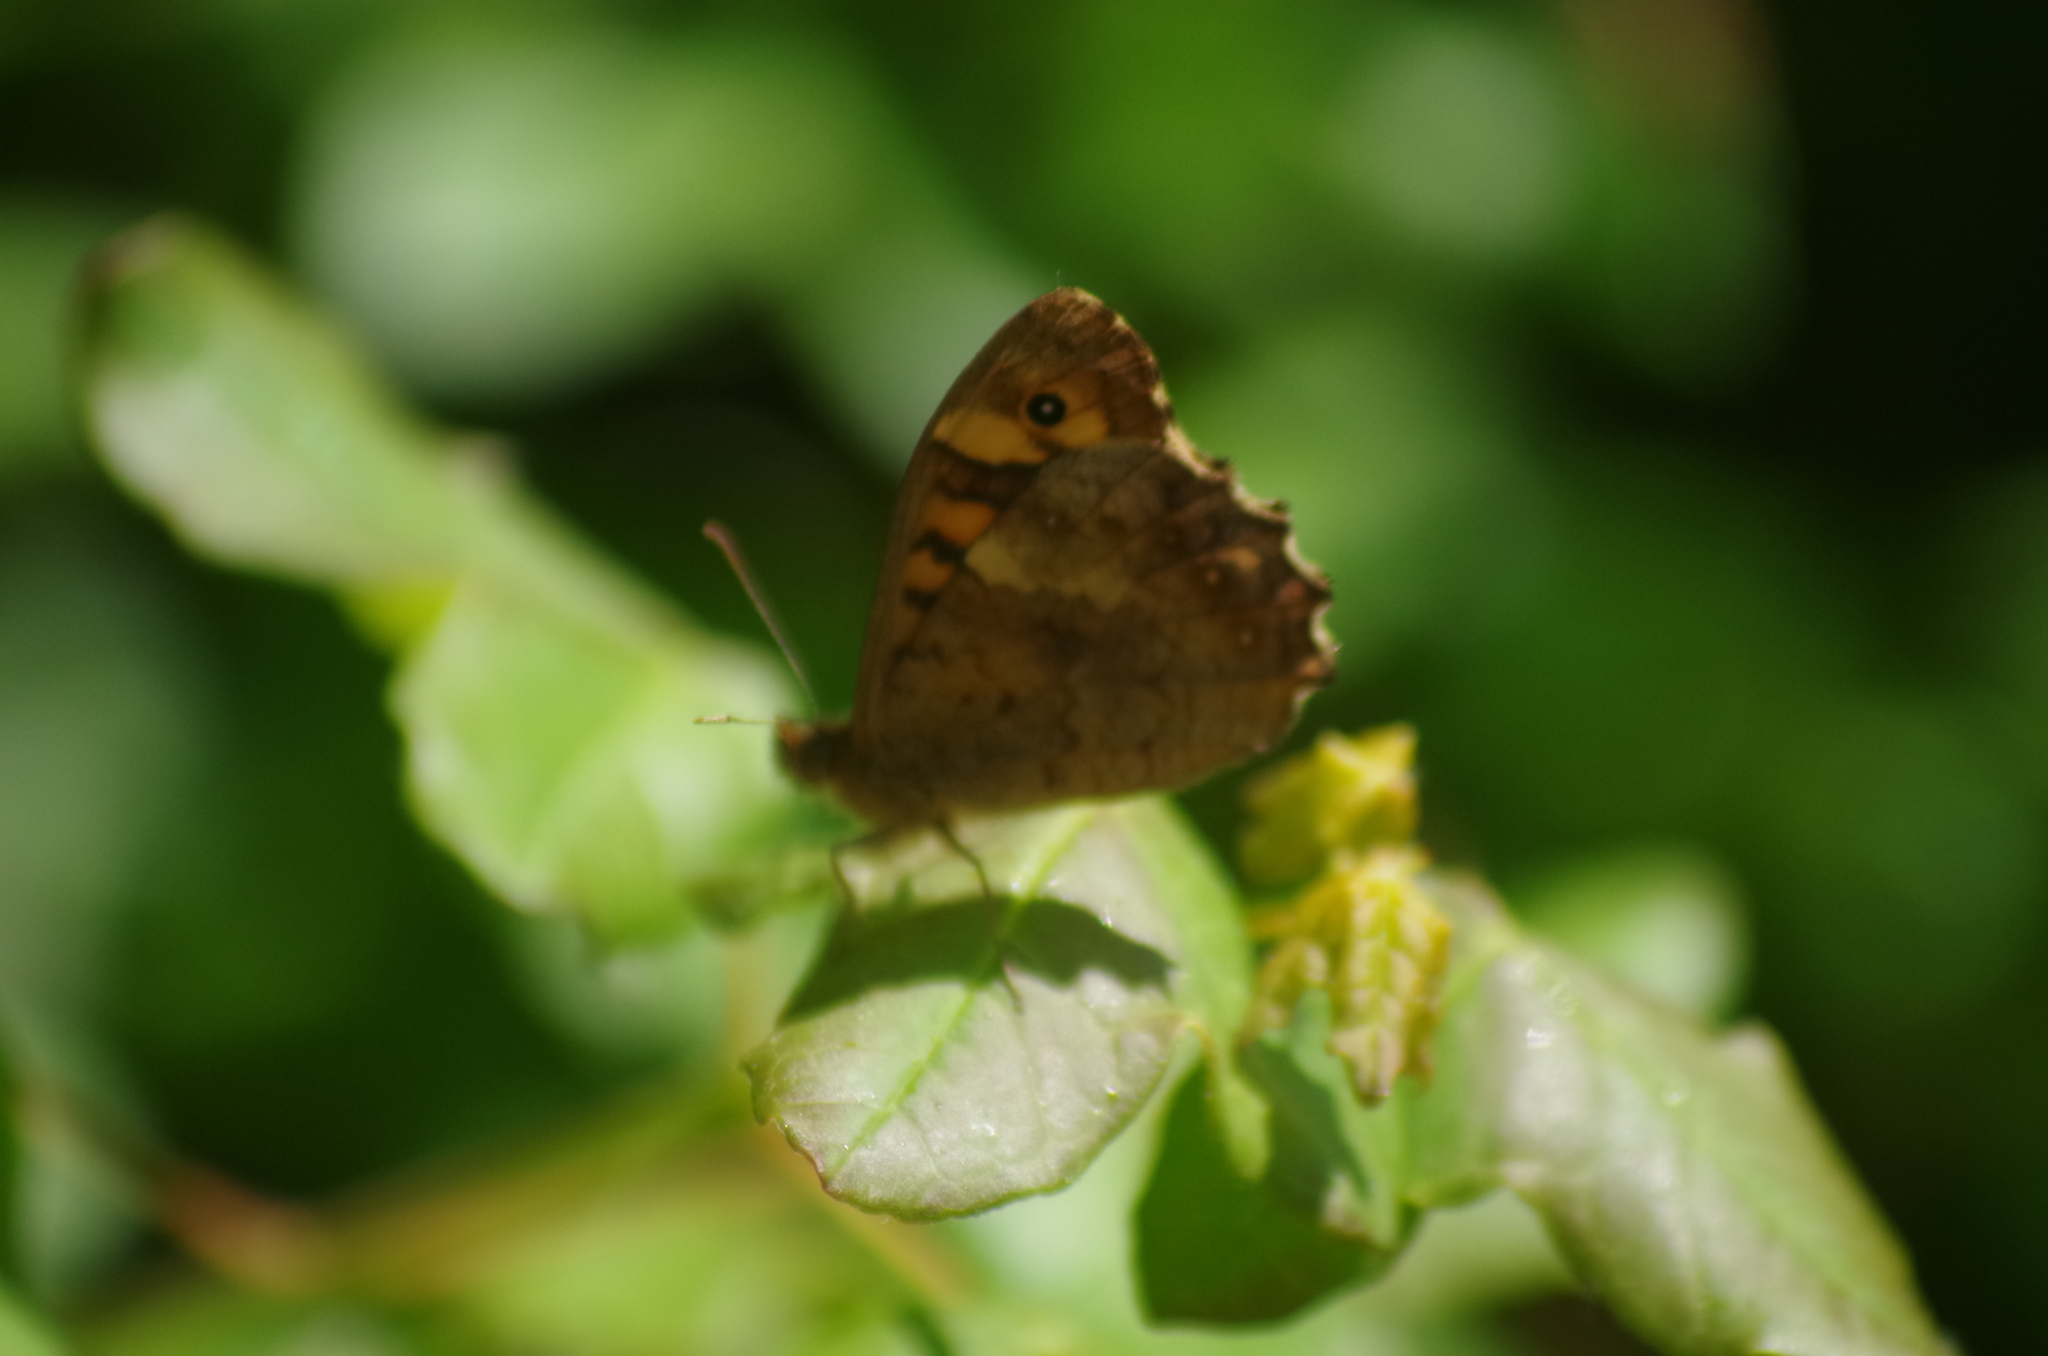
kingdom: Animalia
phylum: Arthropoda
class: Insecta
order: Lepidoptera
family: Nymphalidae
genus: Pararge
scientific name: Pararge aegeria
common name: Speckled wood
